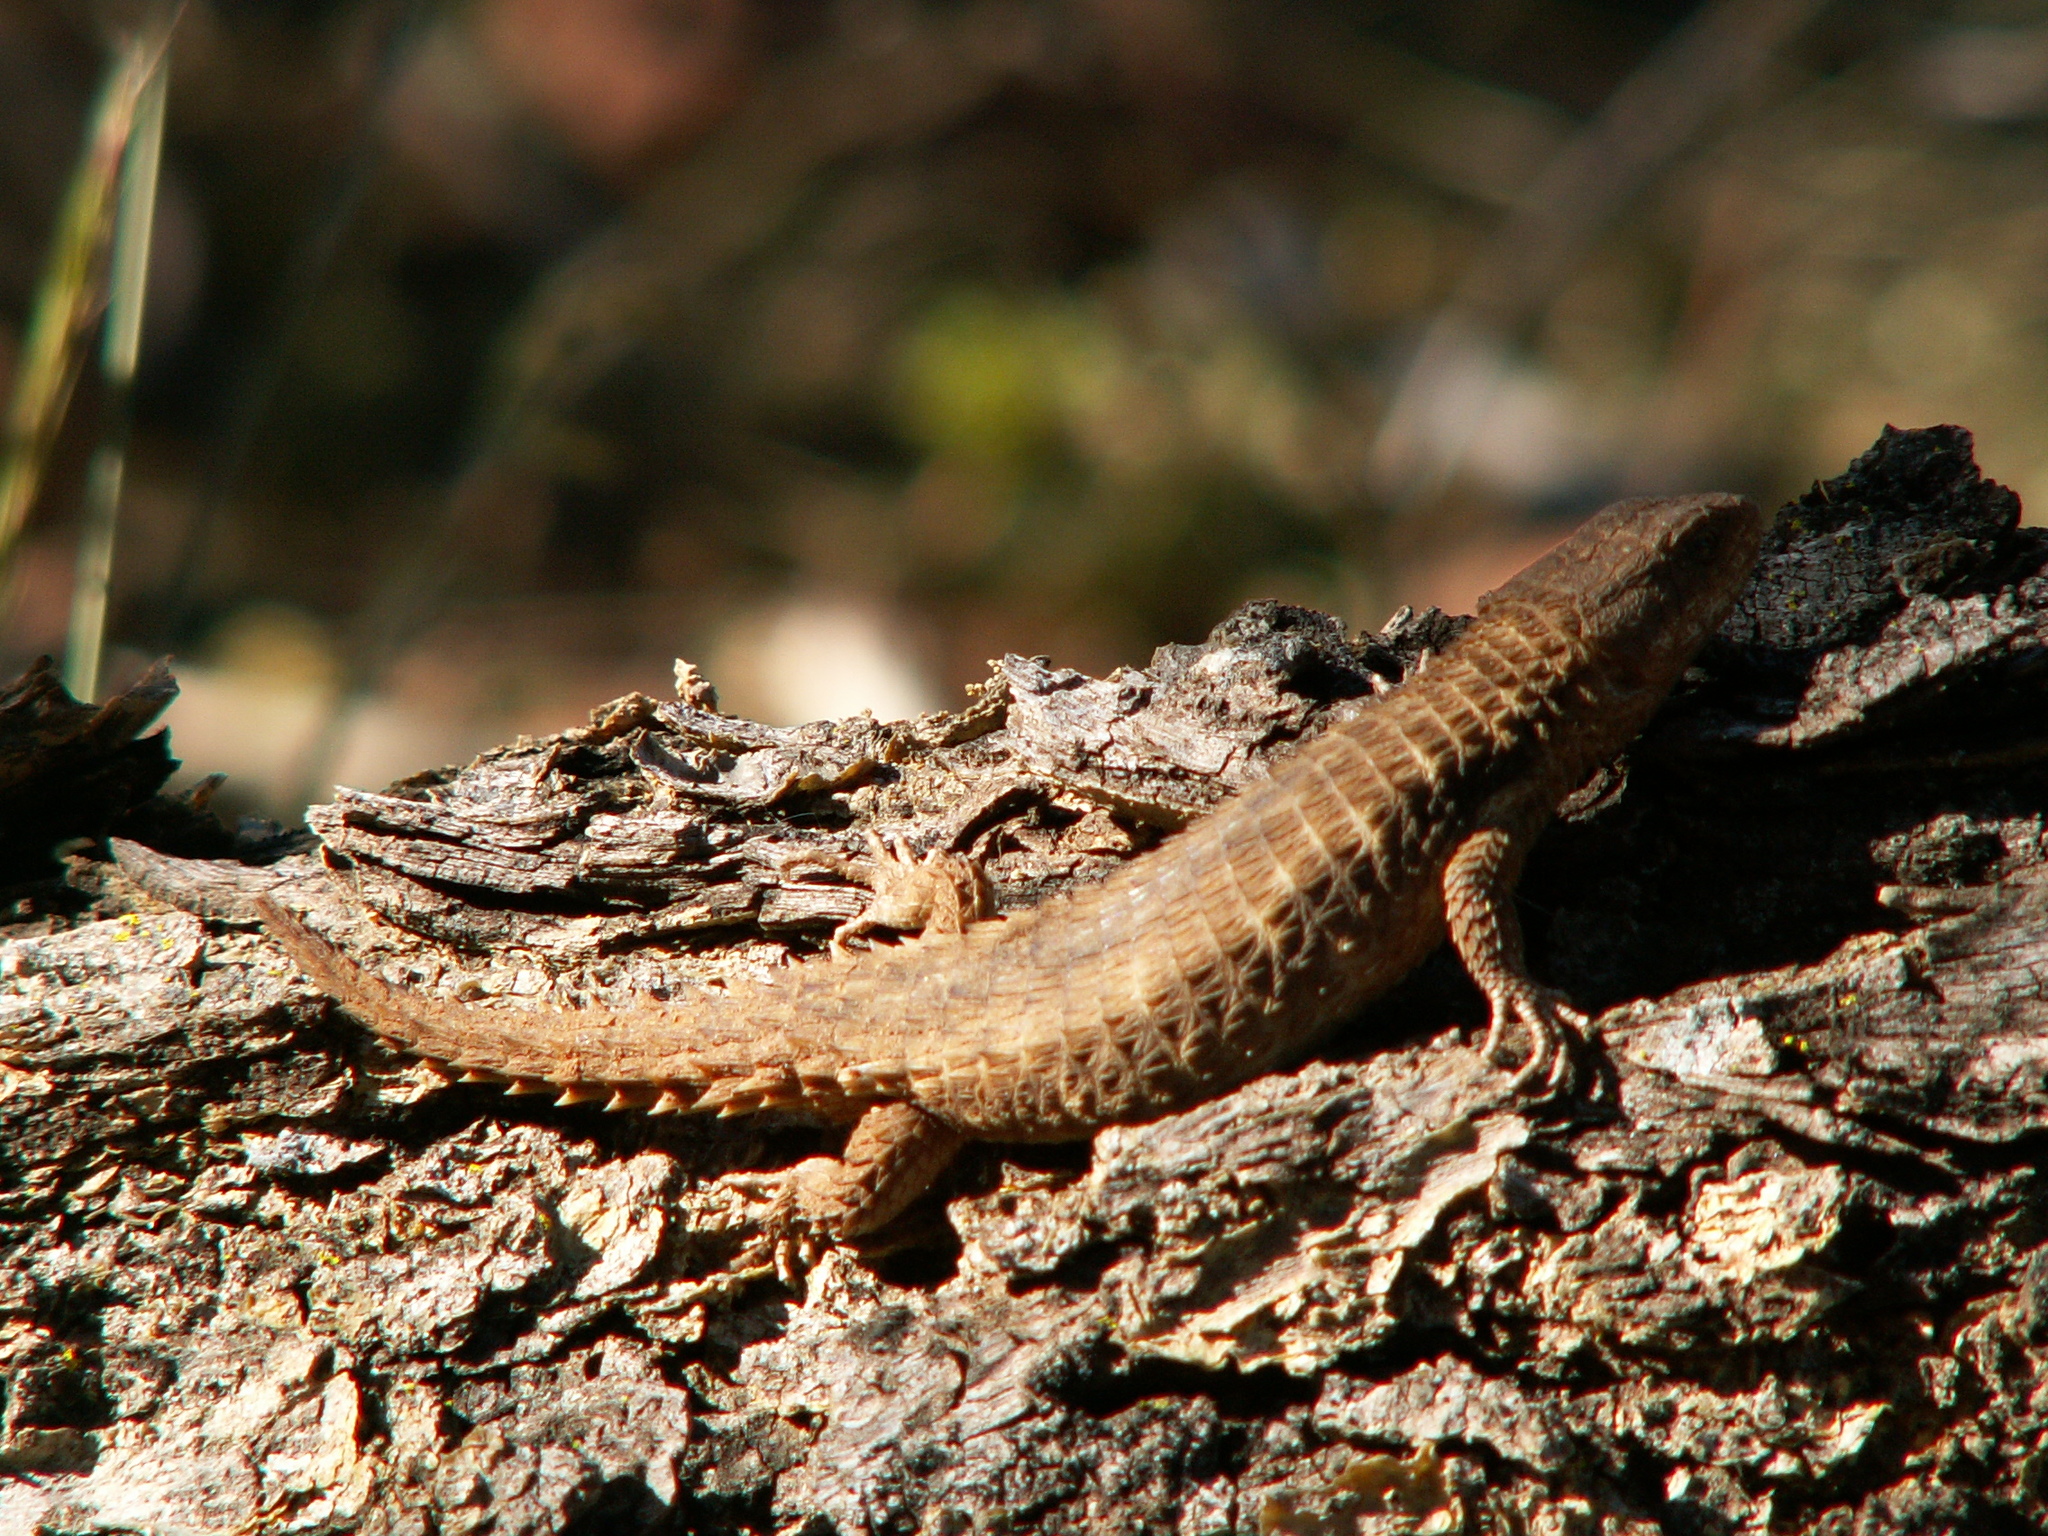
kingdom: Animalia
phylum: Chordata
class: Squamata
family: Cordylidae
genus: Cordylus
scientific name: Cordylus jonesii
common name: Jones' girdled lizard
